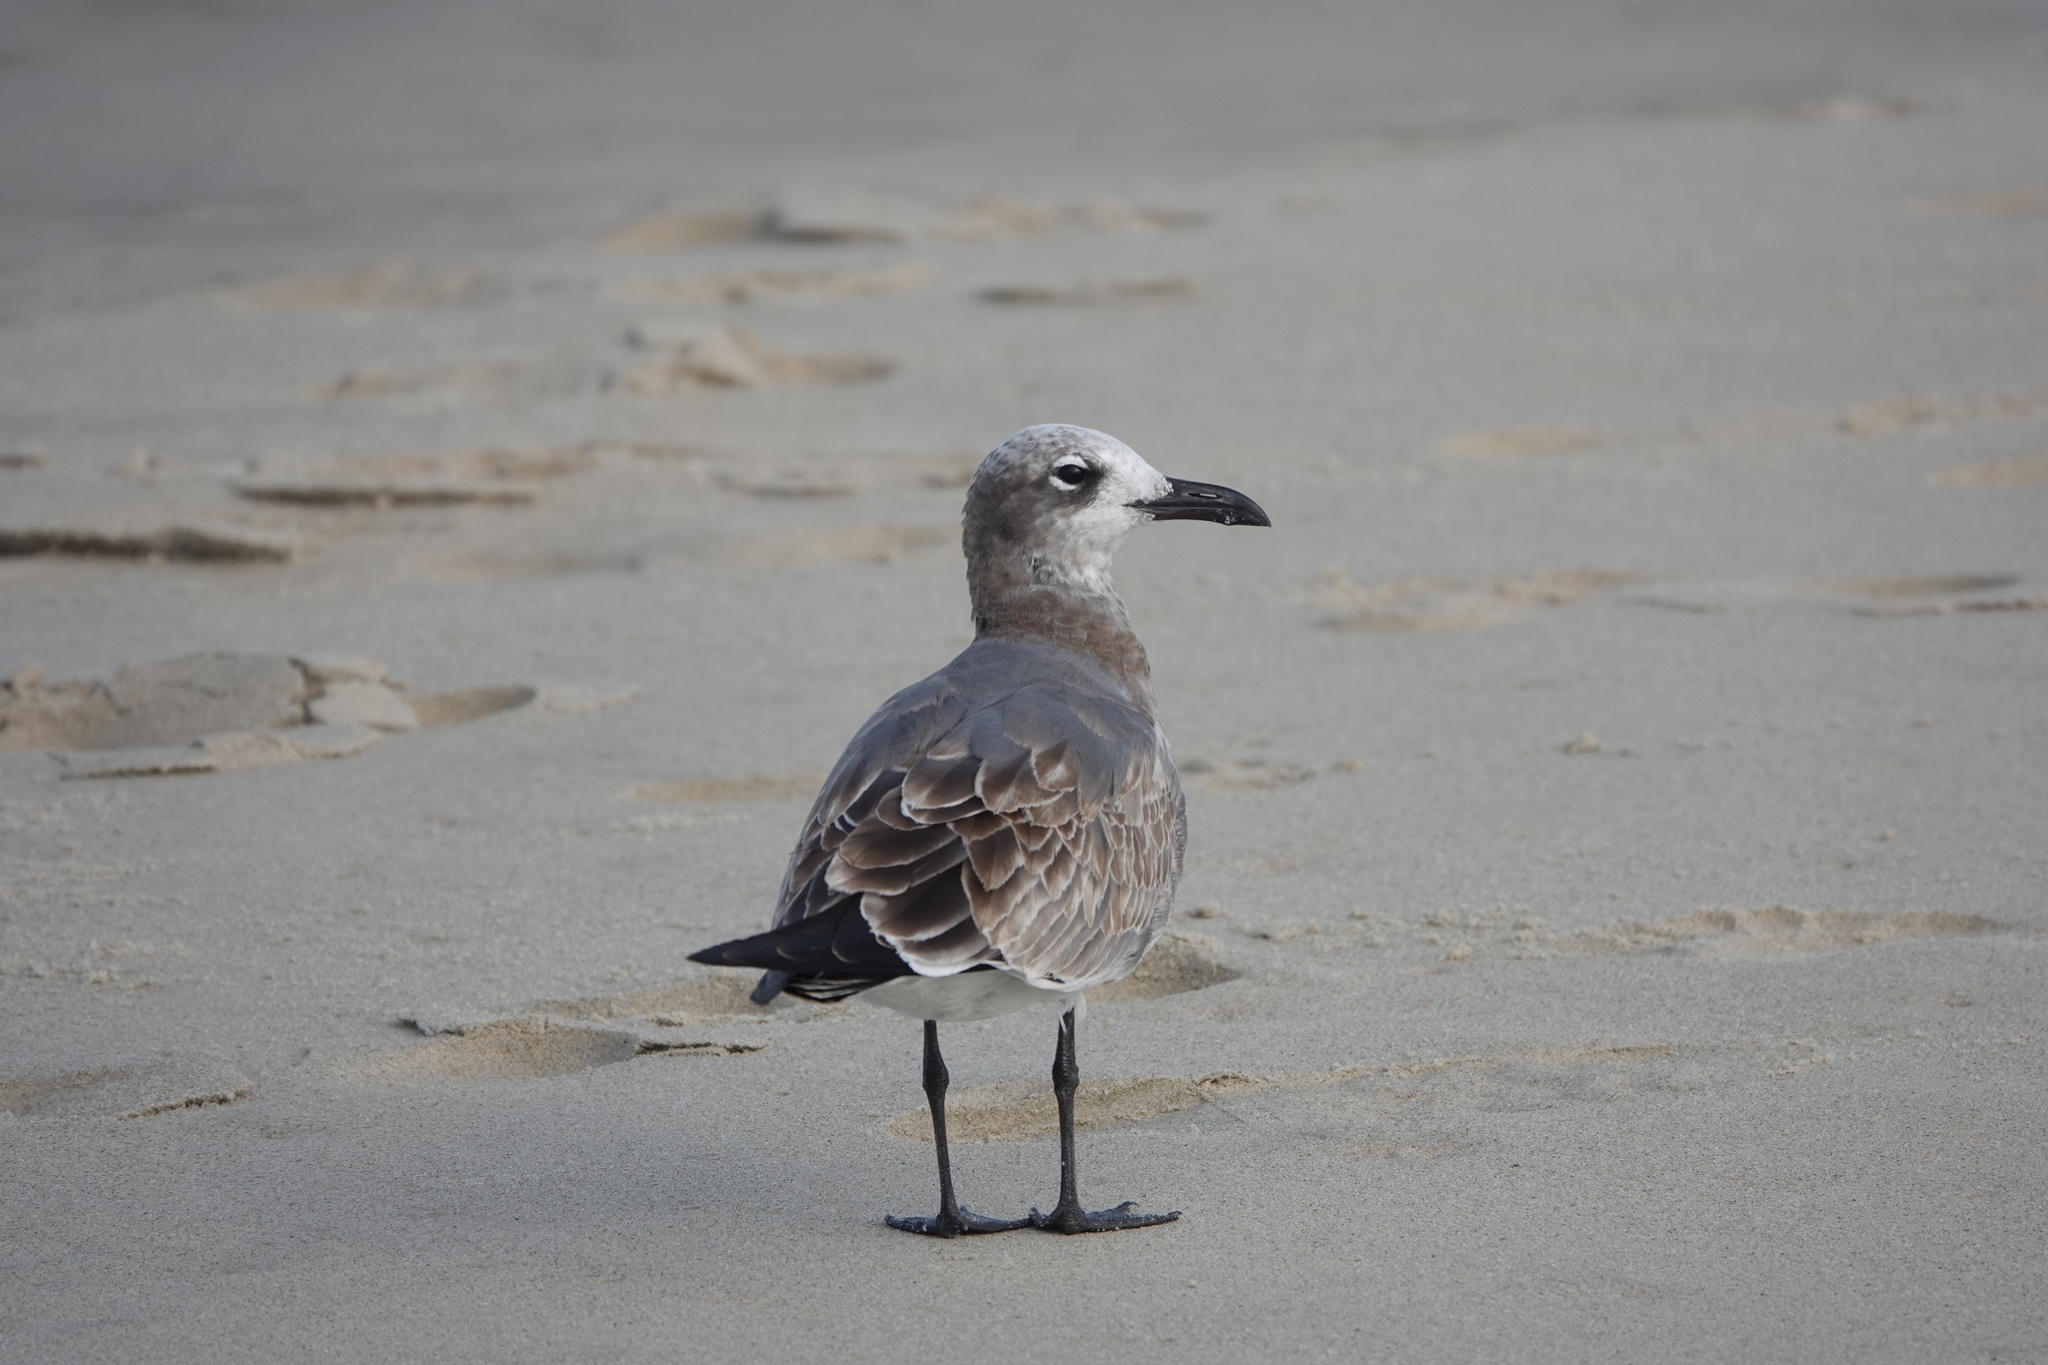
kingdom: Animalia
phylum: Chordata
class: Aves
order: Charadriiformes
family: Laridae
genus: Leucophaeus
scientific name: Leucophaeus atricilla
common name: Laughing gull
